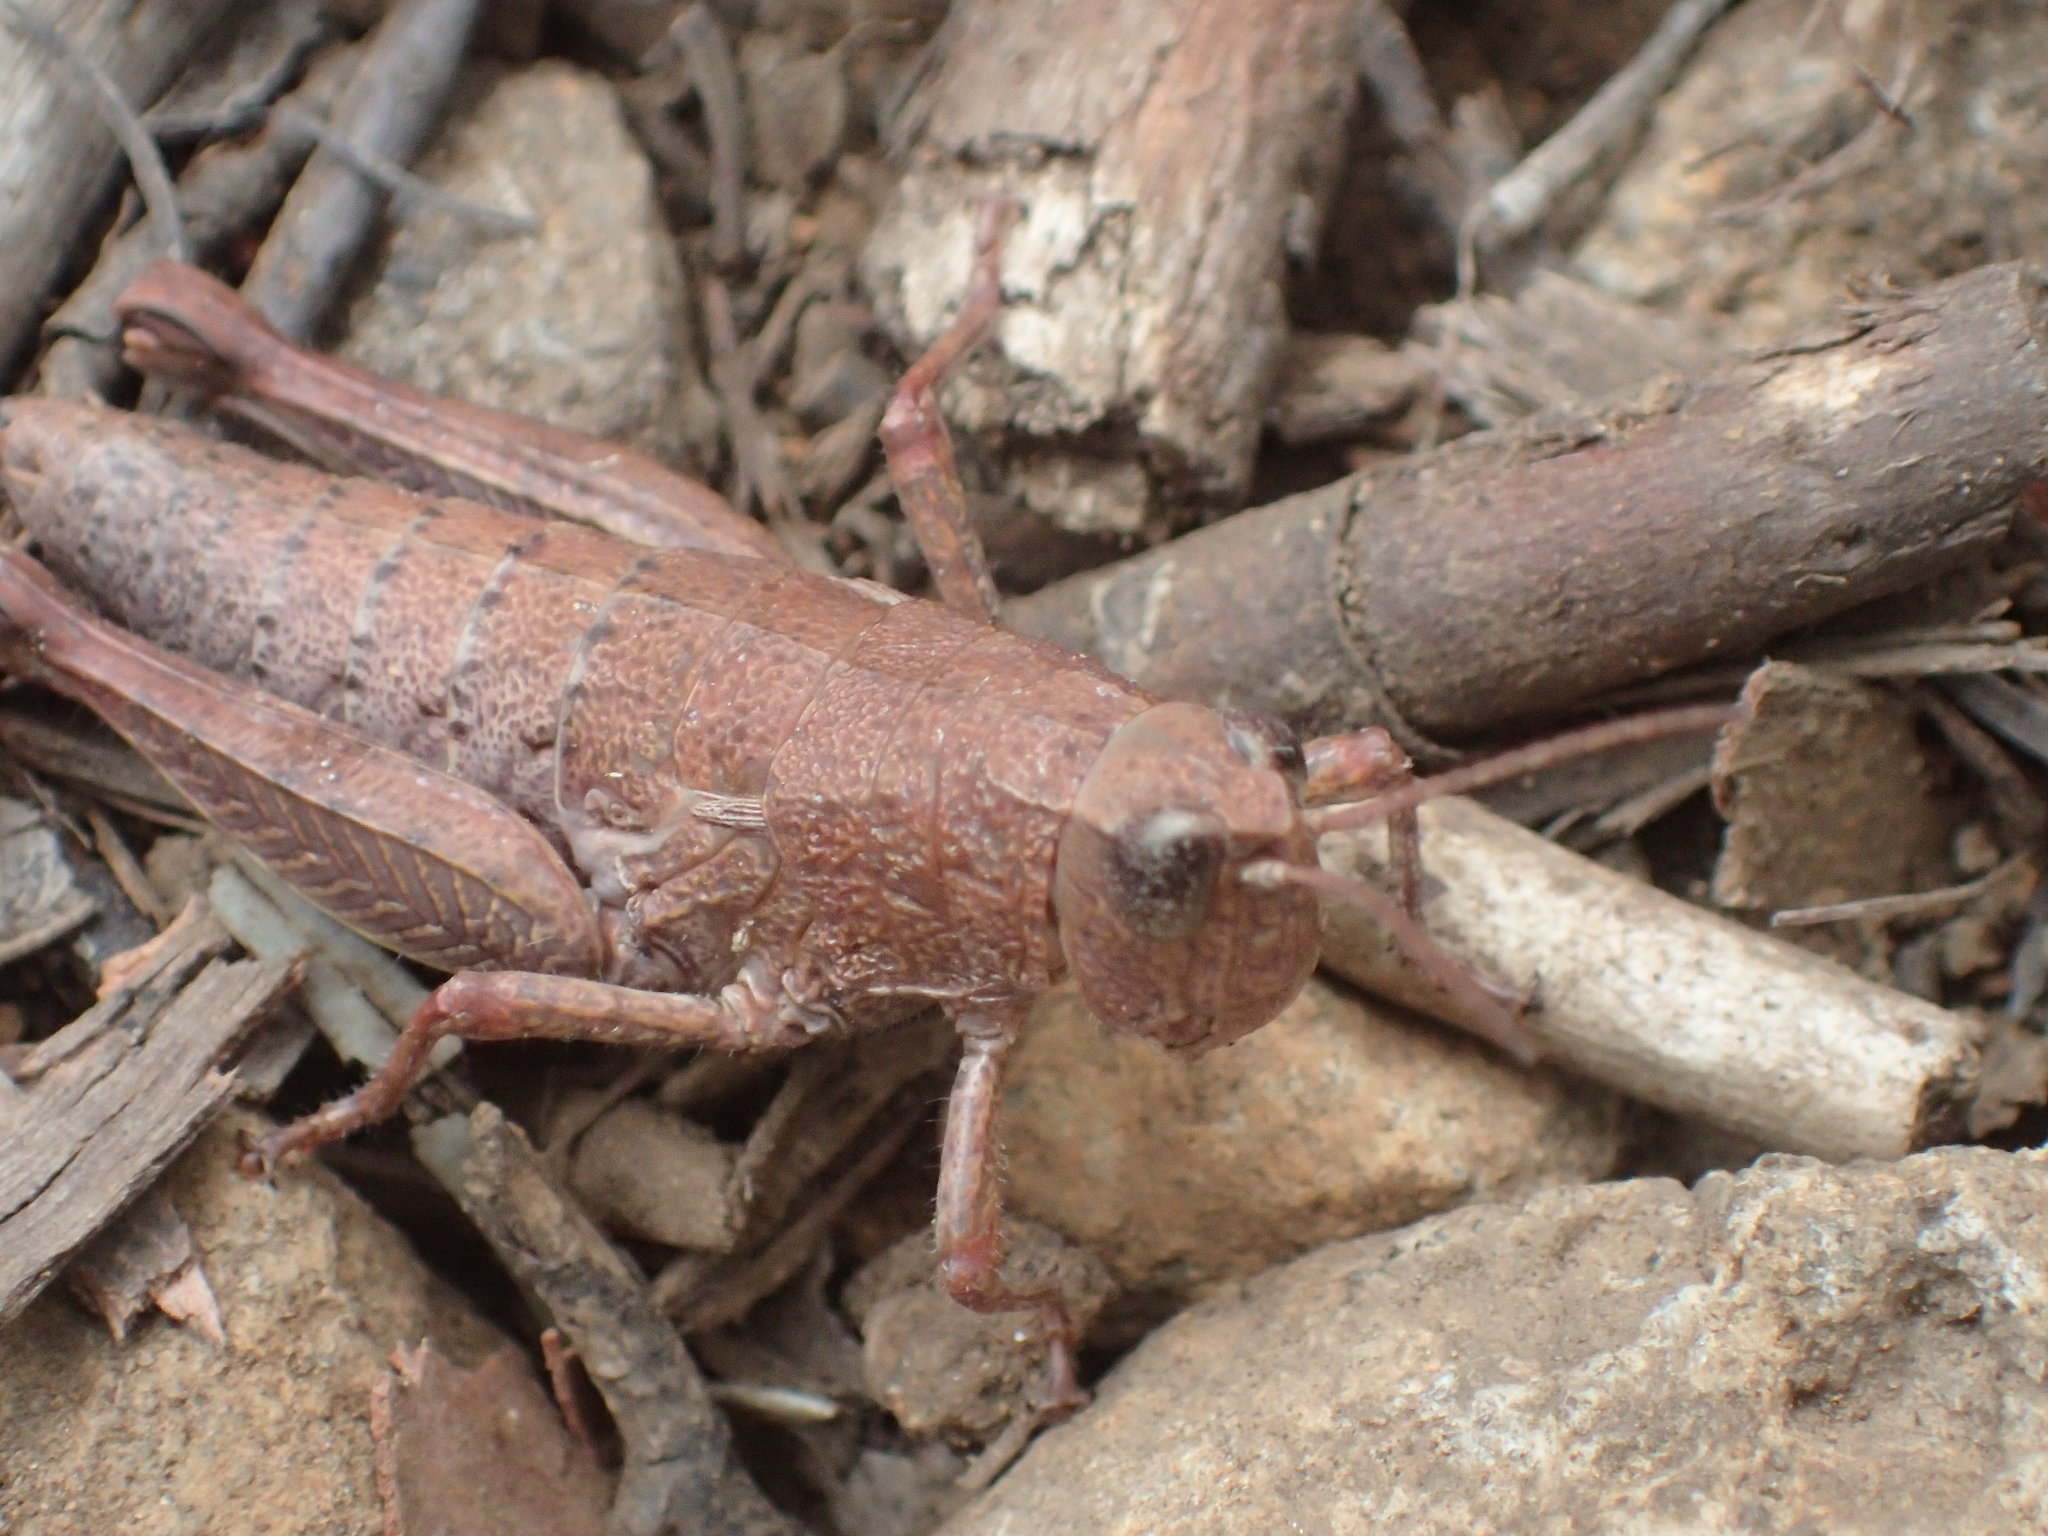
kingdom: Animalia
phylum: Arthropoda
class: Insecta
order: Orthoptera
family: Acrididae
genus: Tasmaniacris
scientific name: Tasmaniacris tasmaniensis
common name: Tasmanian grasshopper
